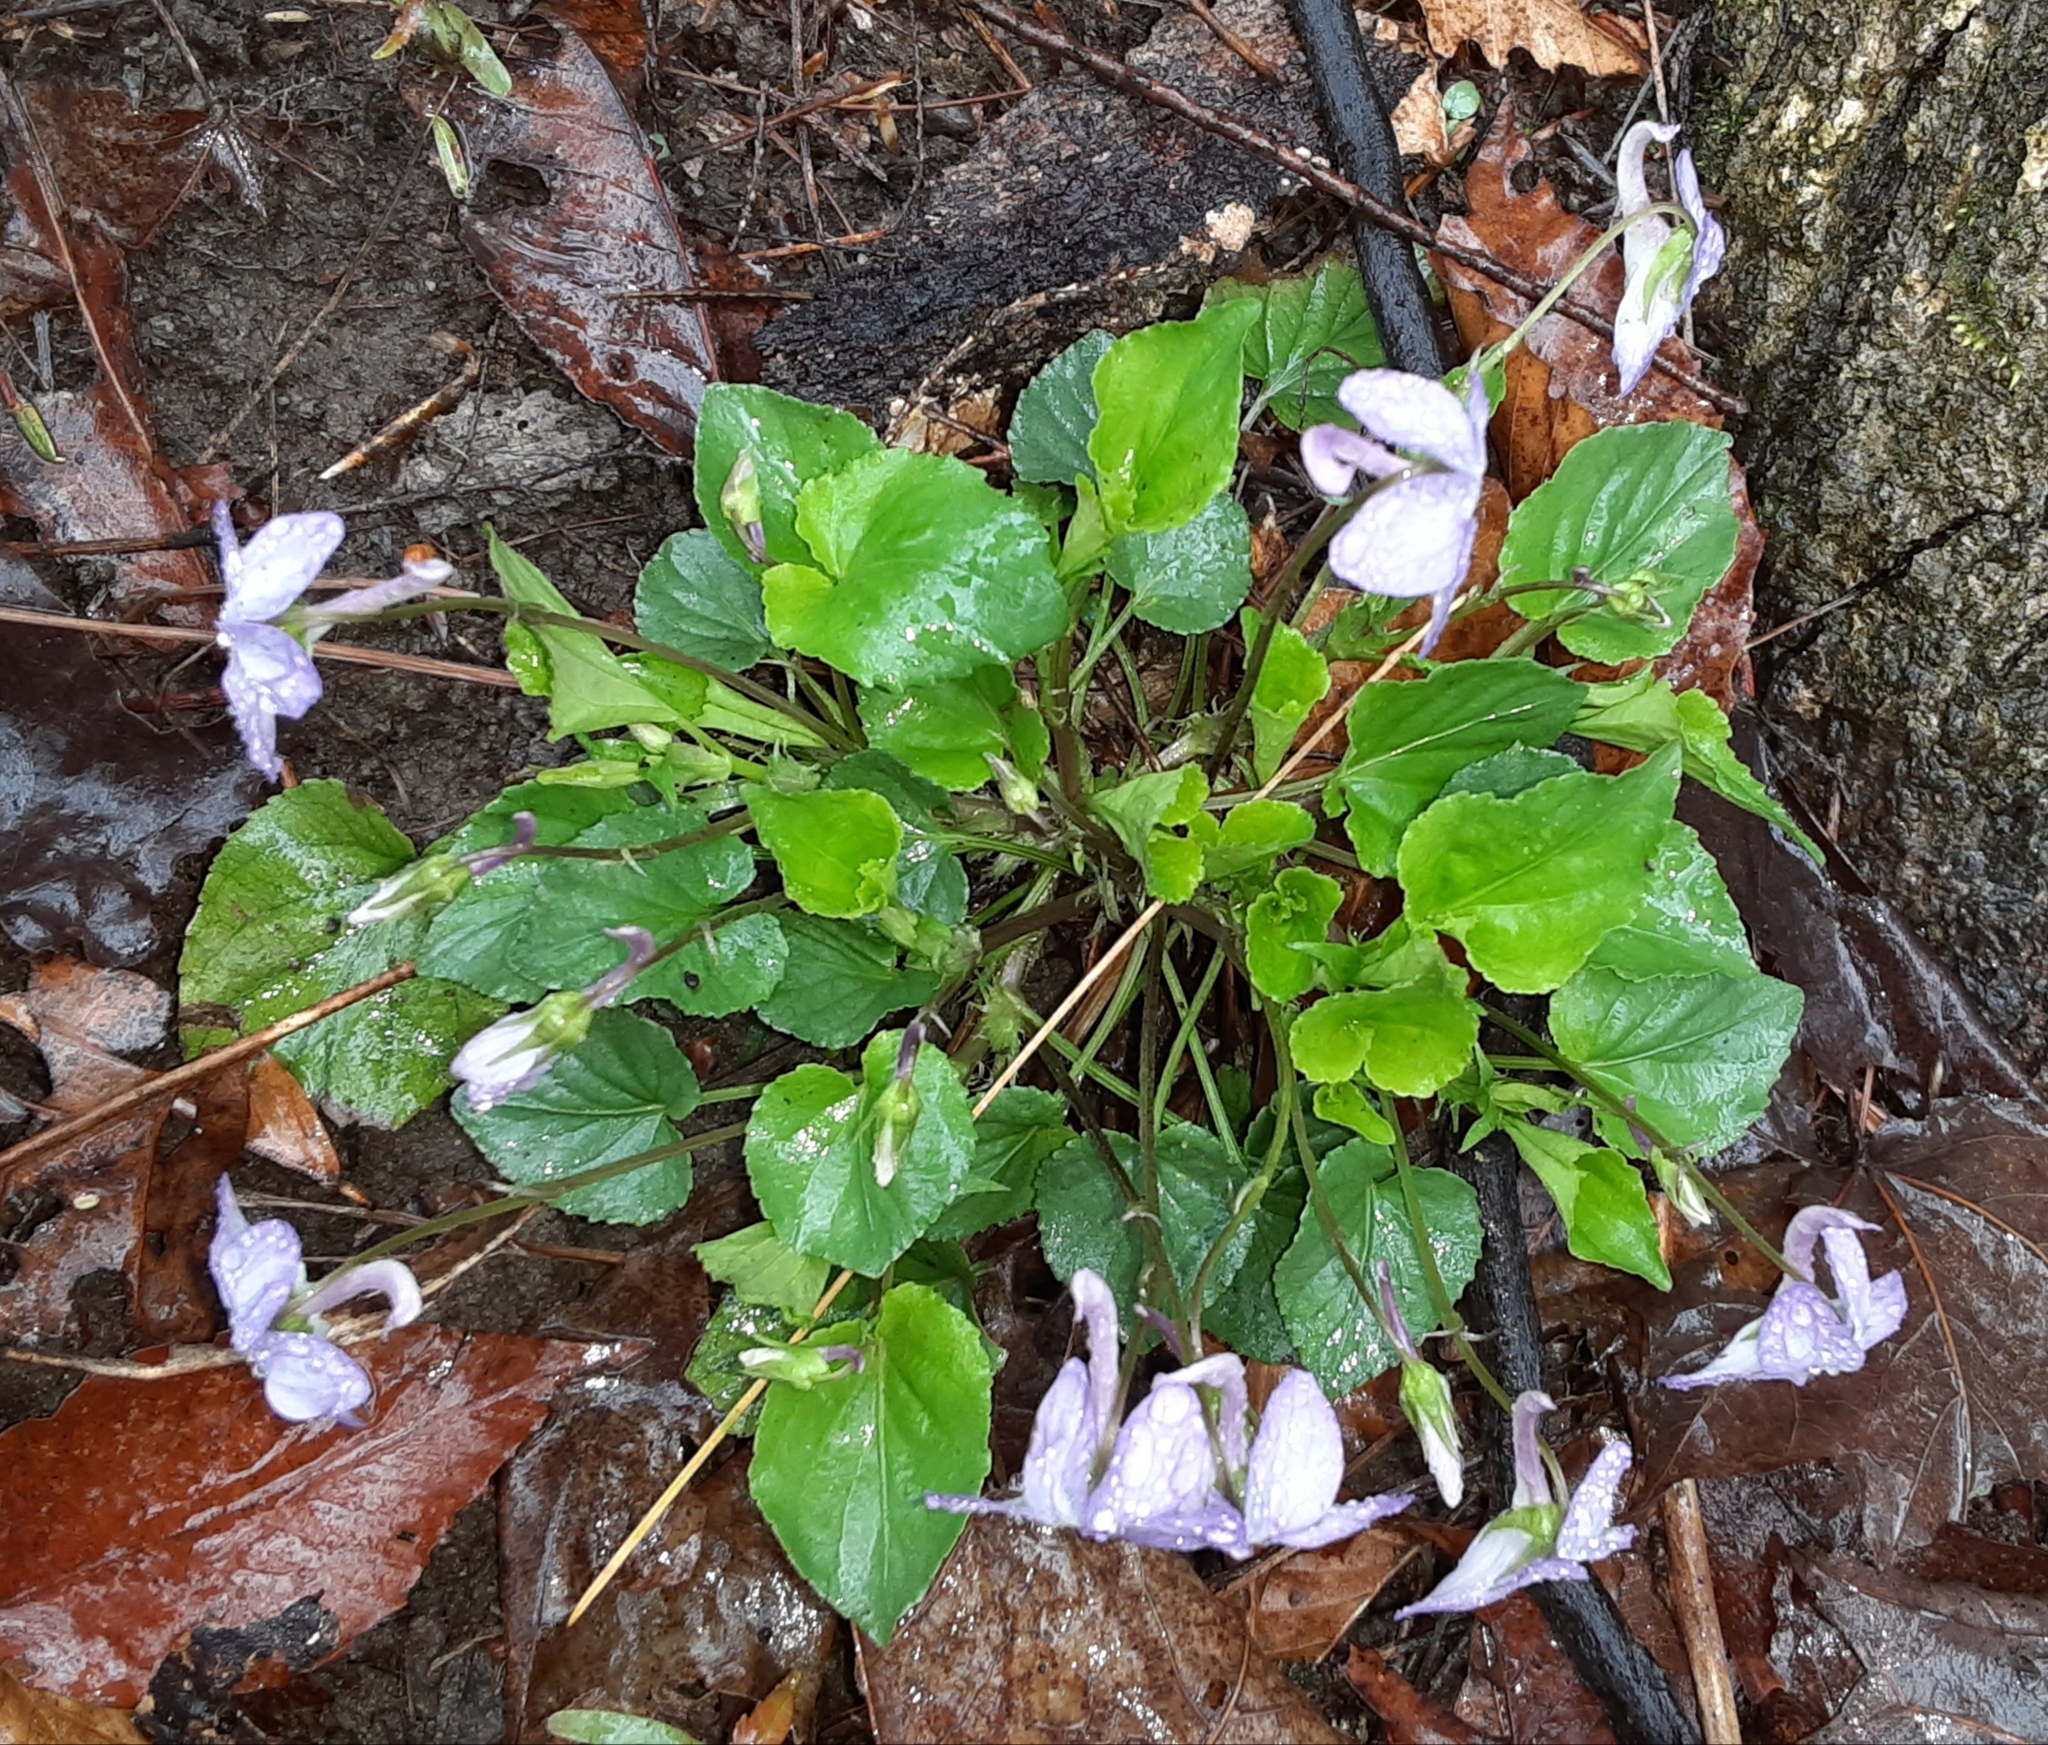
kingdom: Plantae
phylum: Tracheophyta
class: Magnoliopsida
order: Malpighiales
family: Violaceae
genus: Viola
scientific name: Viola rostrata
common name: Long-spur violet
